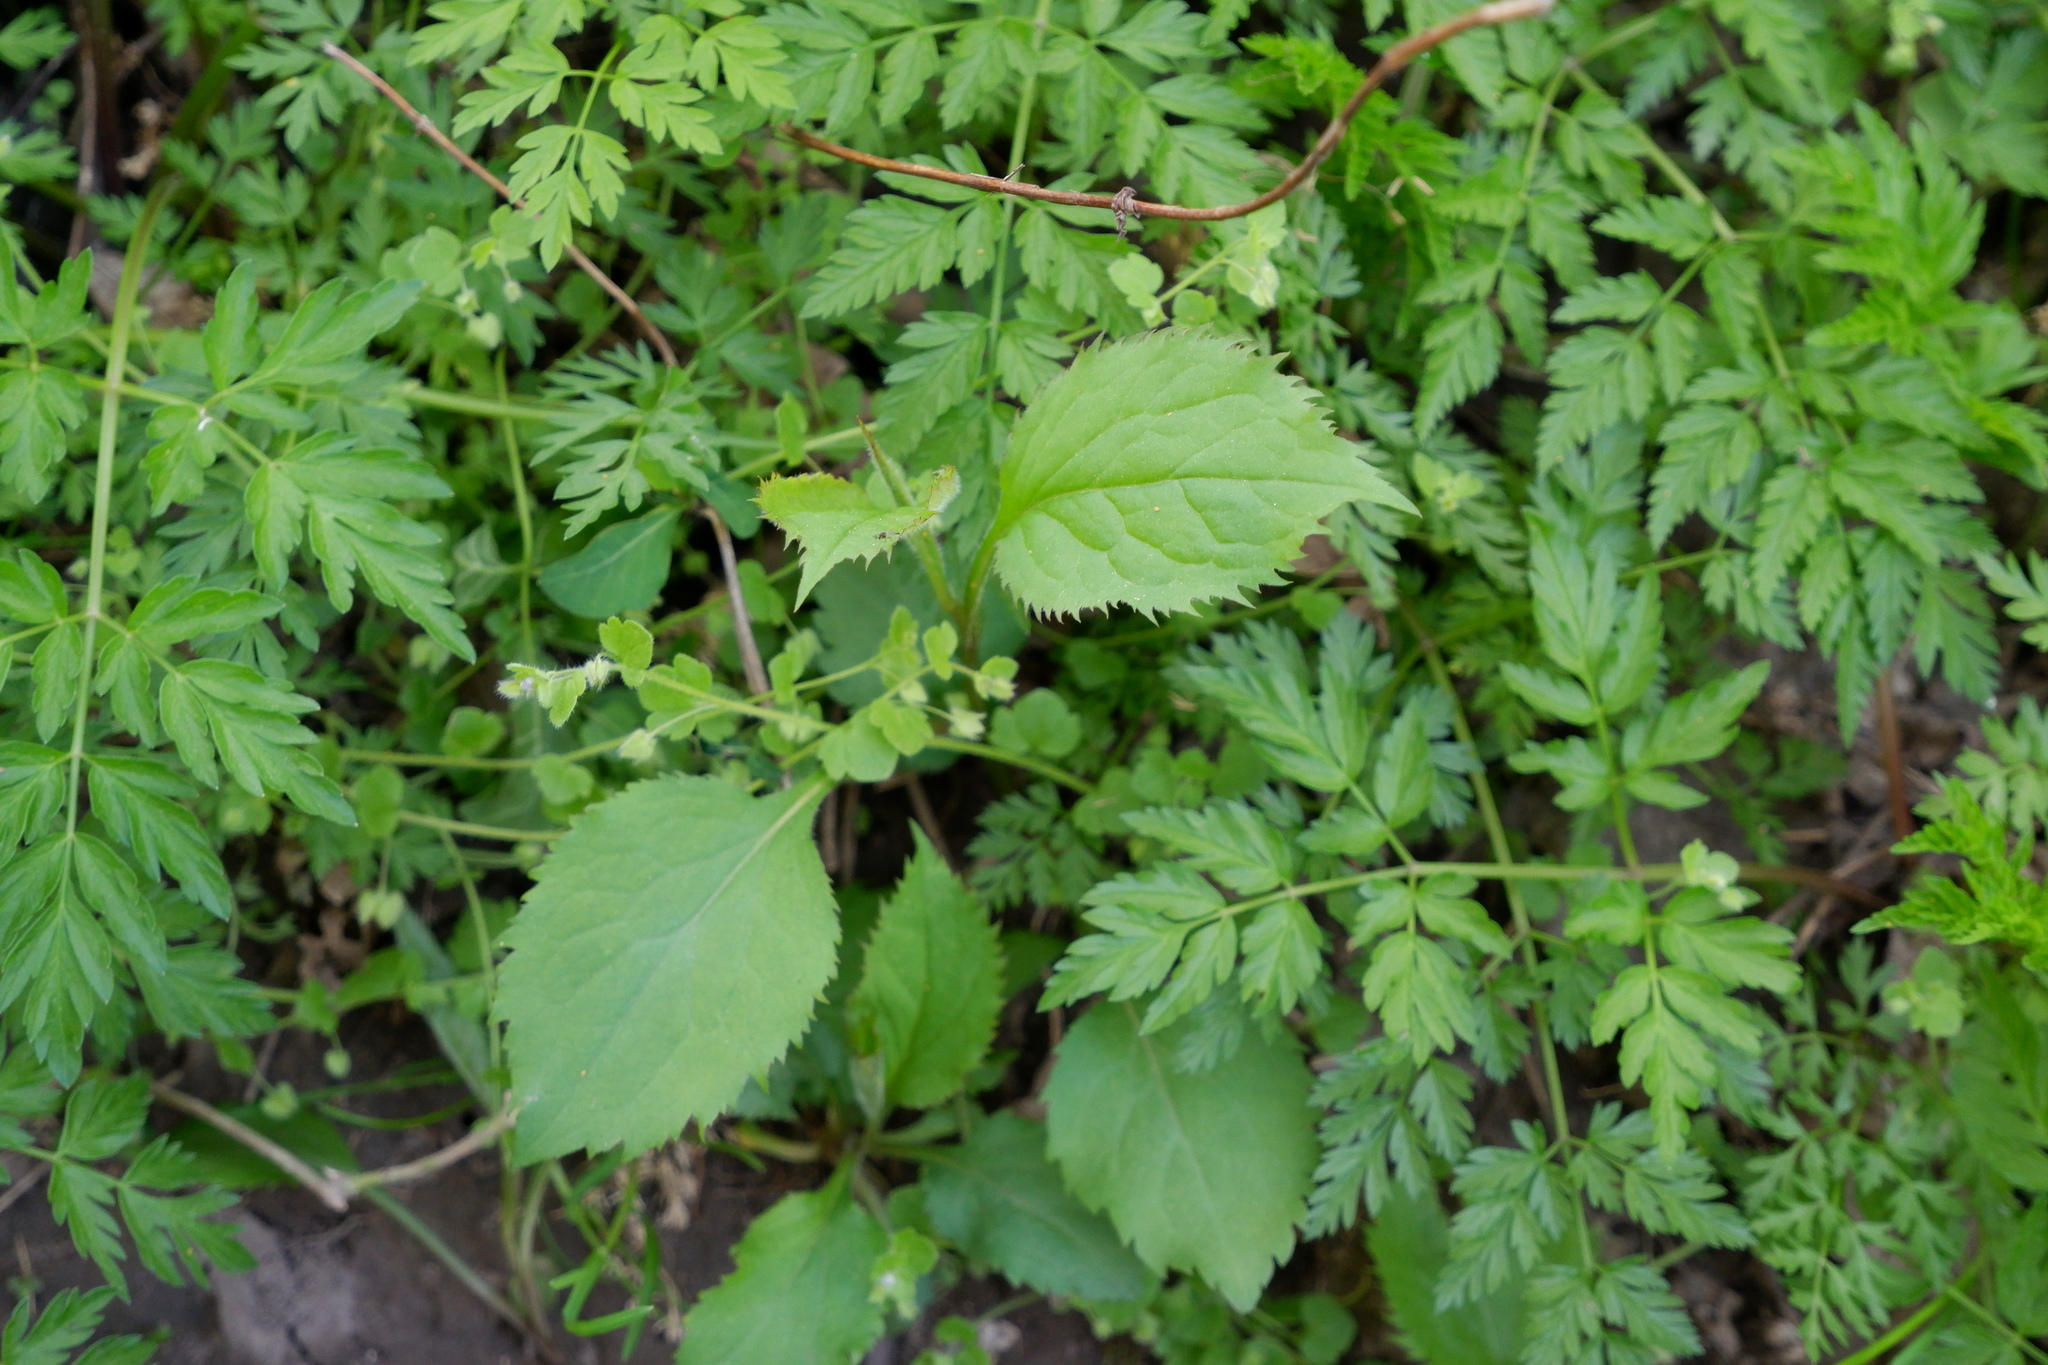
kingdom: Plantae
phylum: Tracheophyta
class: Magnoliopsida
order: Asterales
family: Asteraceae
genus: Solidago
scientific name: Solidago flexicaulis
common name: Zig-zag goldenrod
